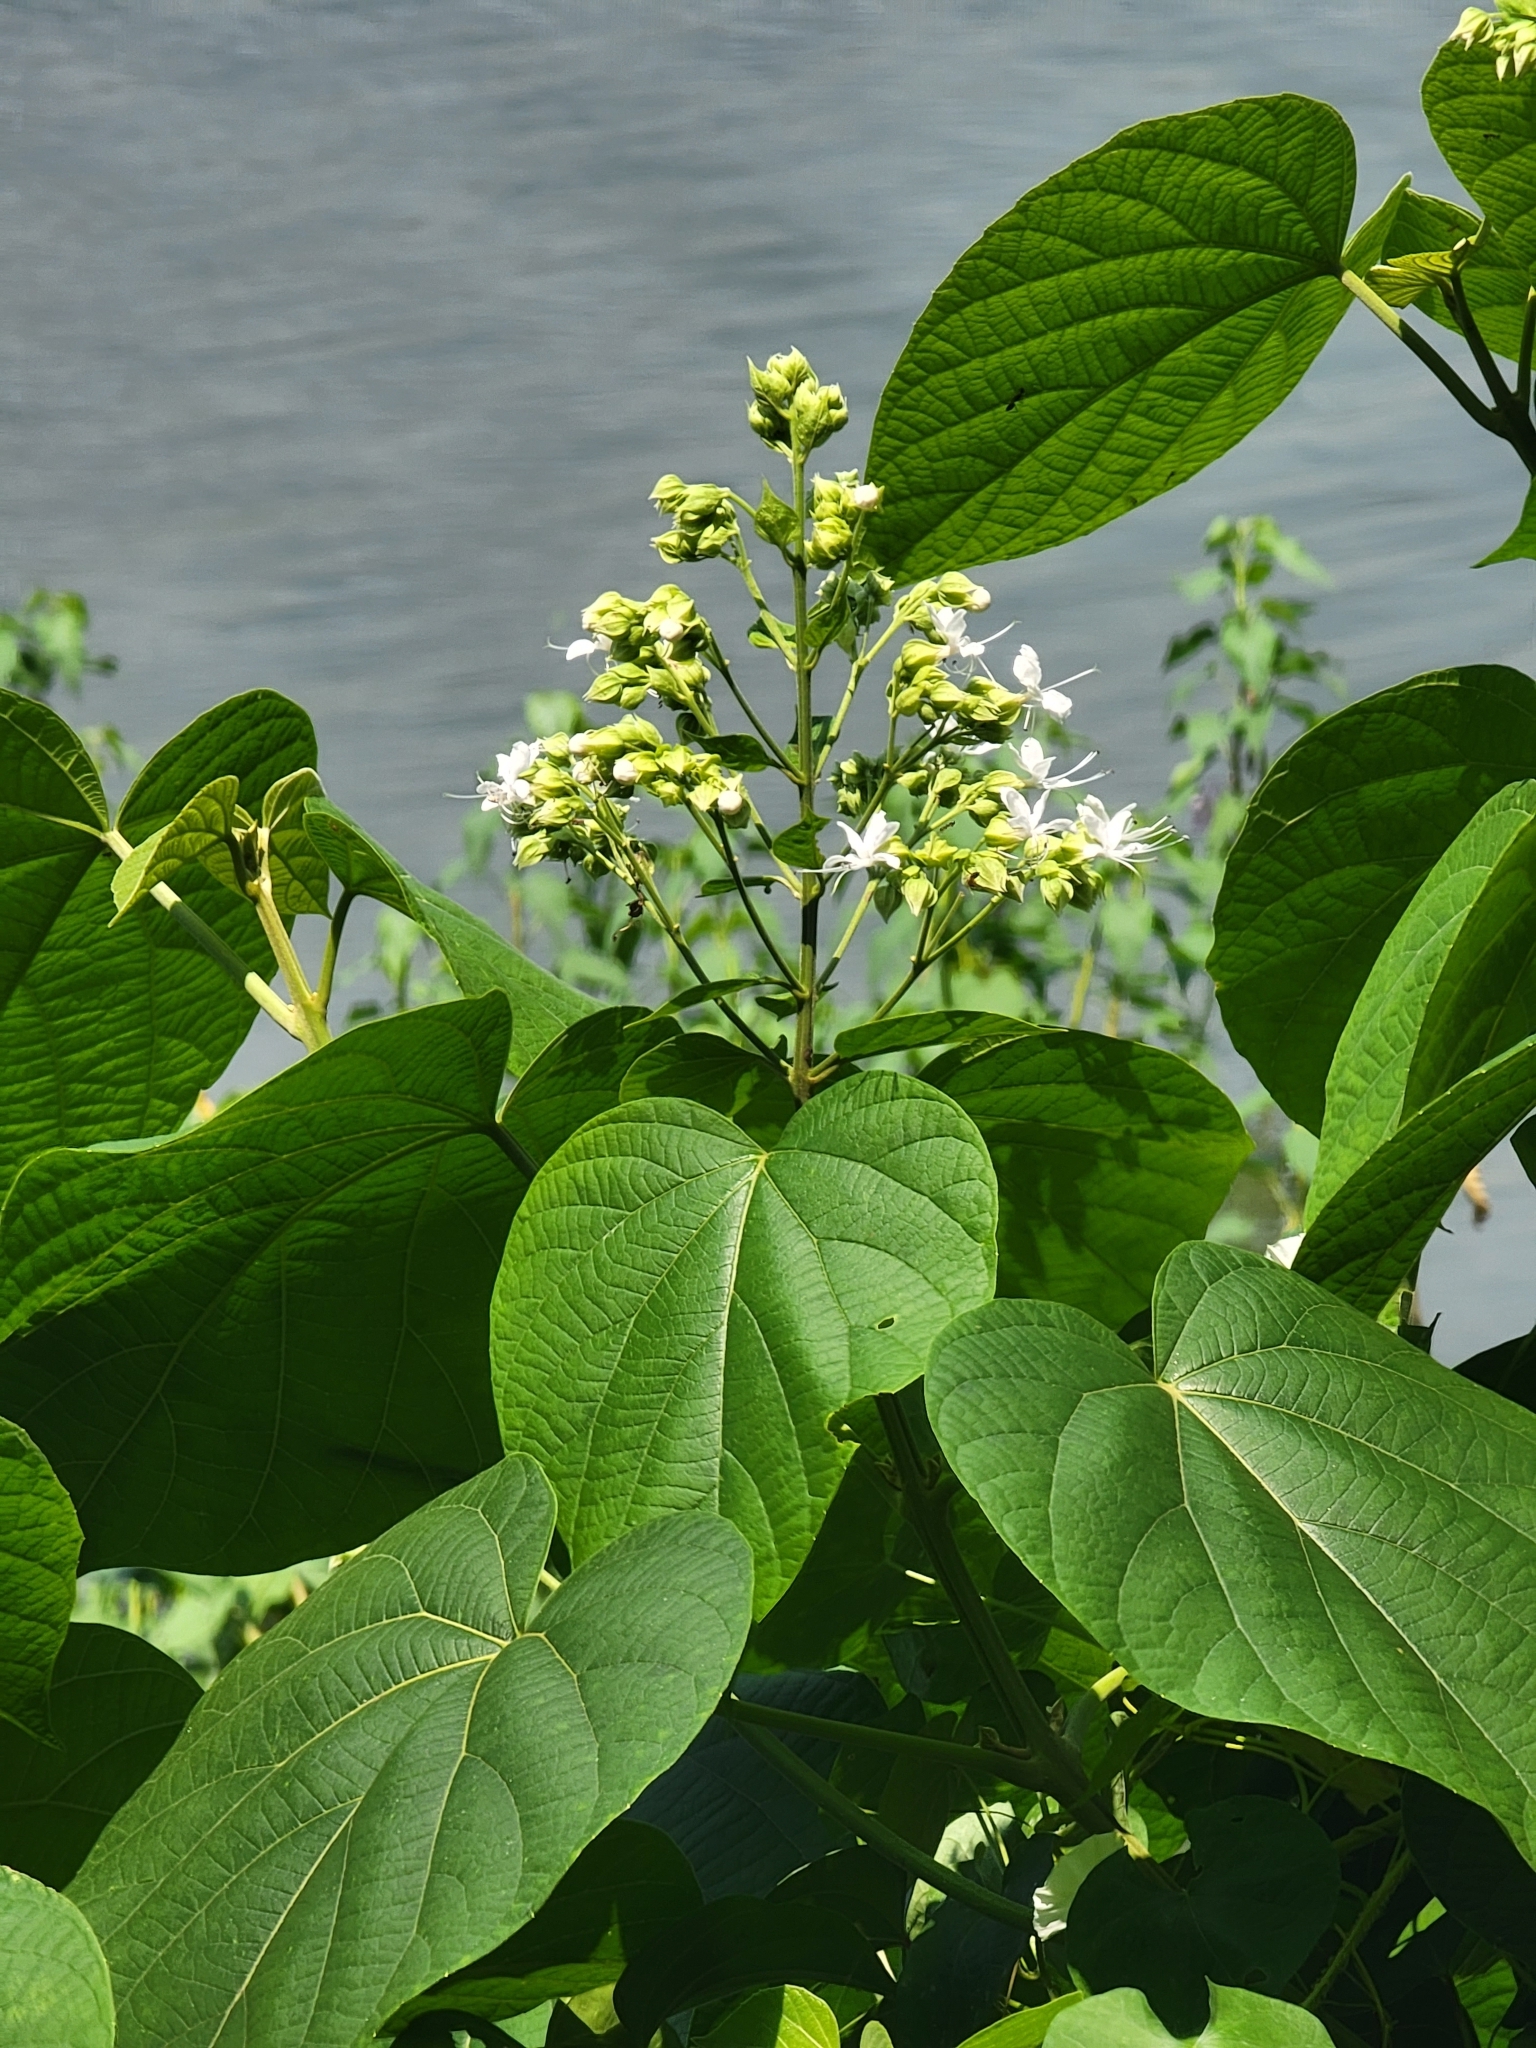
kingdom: Plantae
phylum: Tracheophyta
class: Magnoliopsida
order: Lamiales
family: Lamiaceae
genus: Clerodendrum
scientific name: Clerodendrum infortunatum
